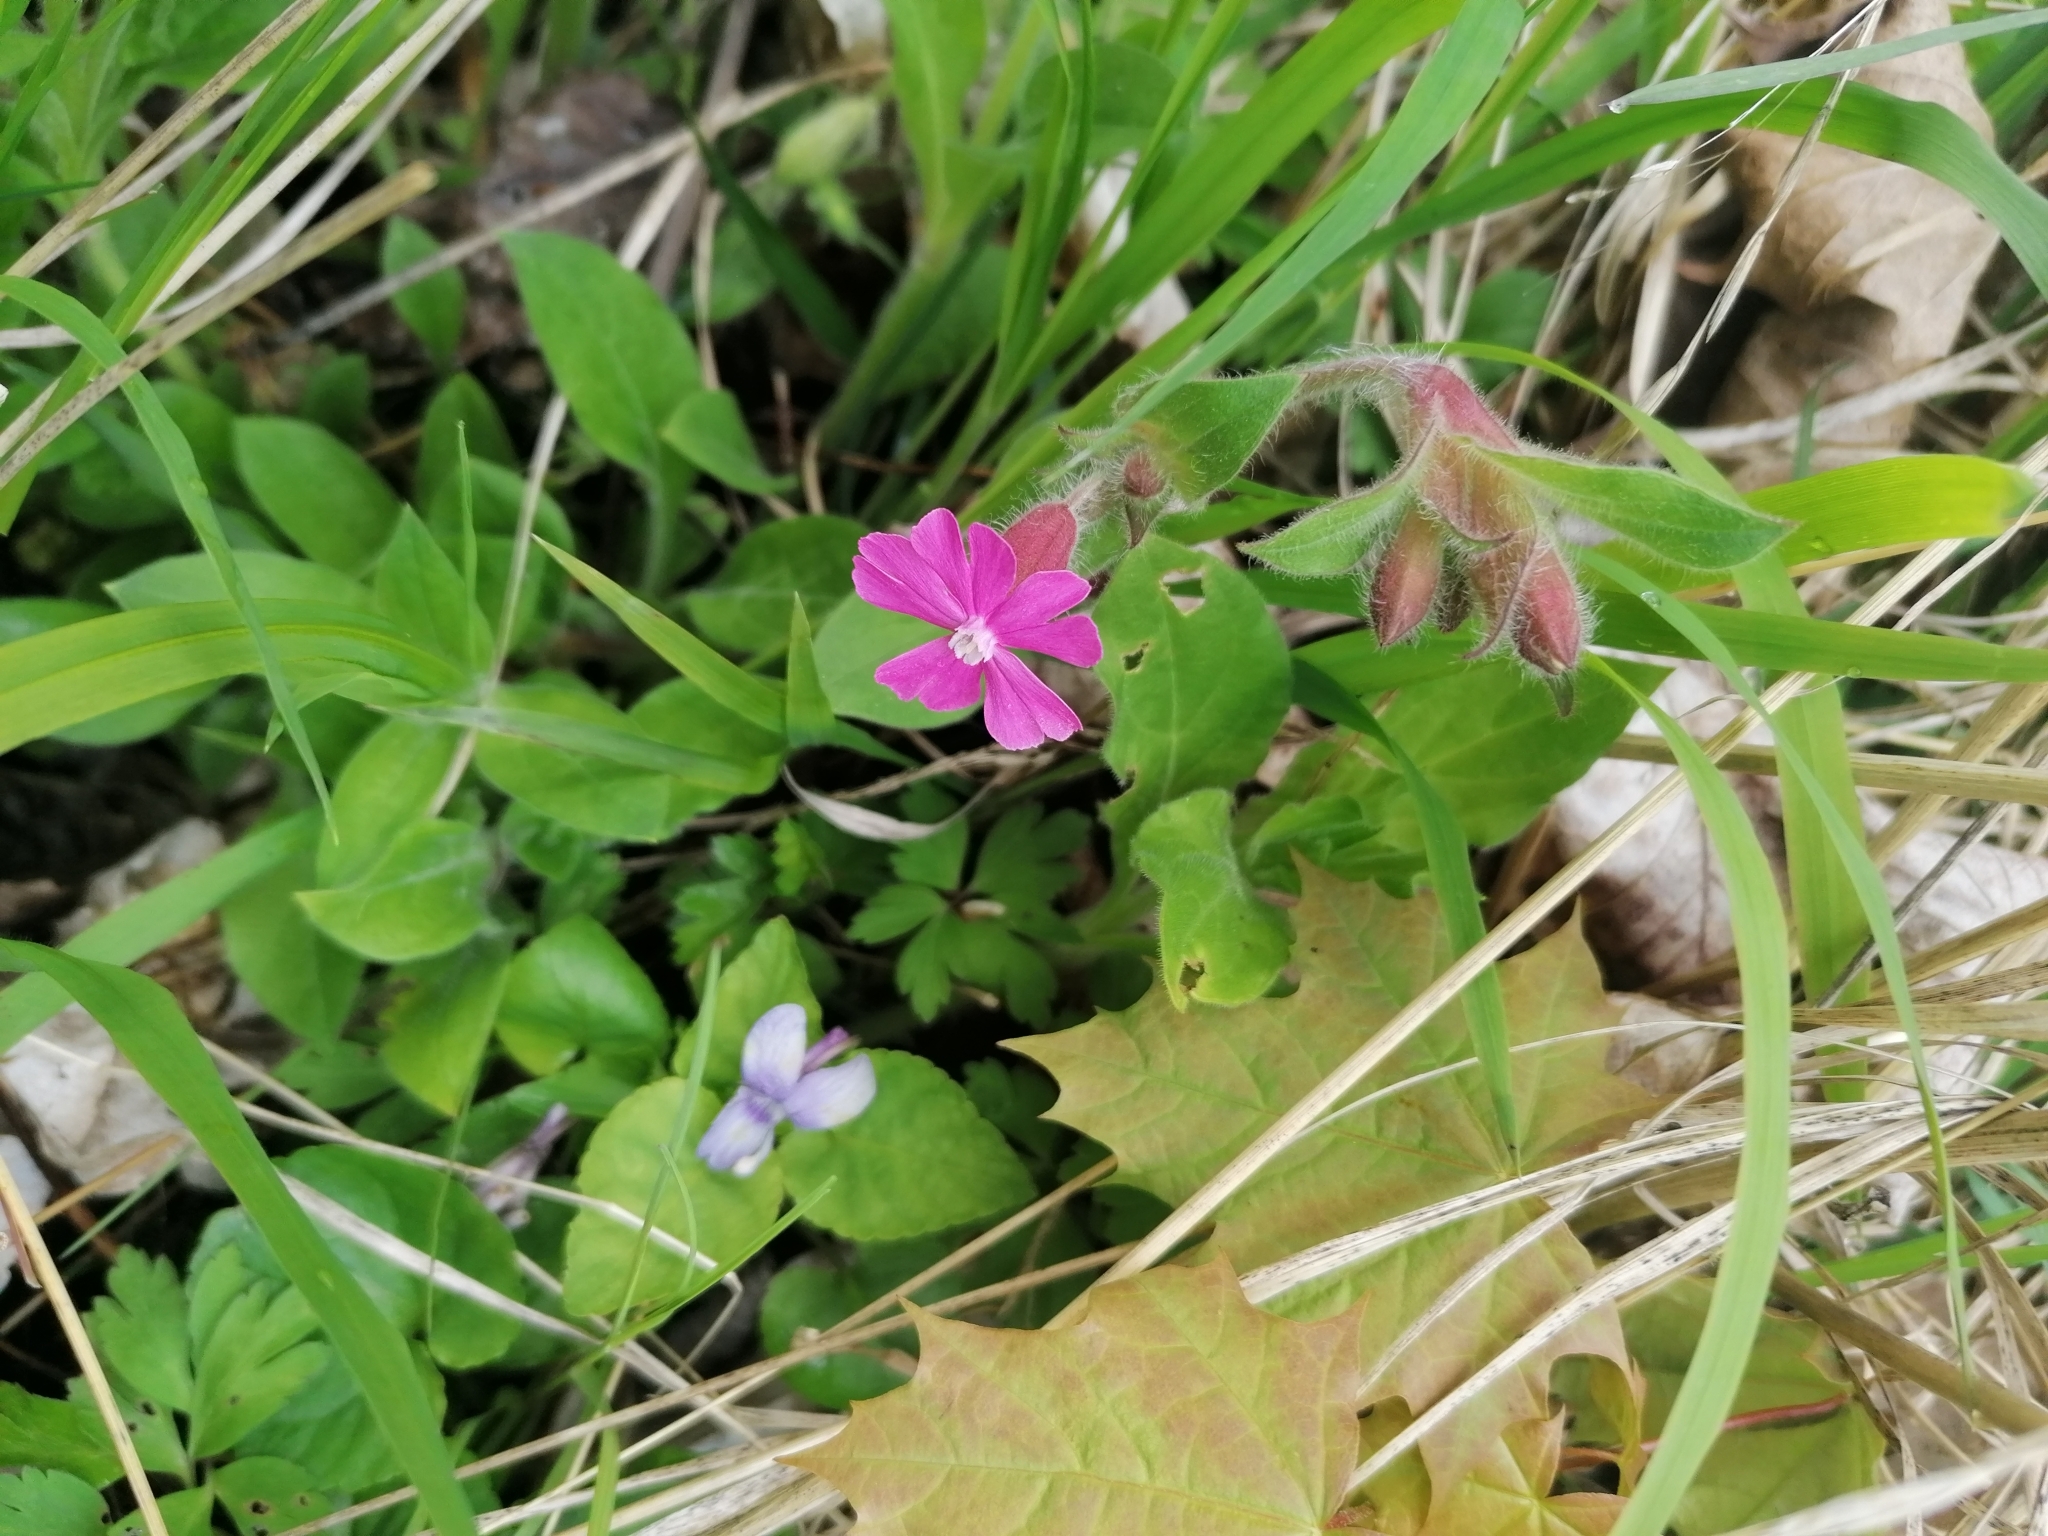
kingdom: Plantae
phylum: Tracheophyta
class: Magnoliopsida
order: Caryophyllales
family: Caryophyllaceae
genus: Silene
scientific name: Silene dioica
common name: Red campion
